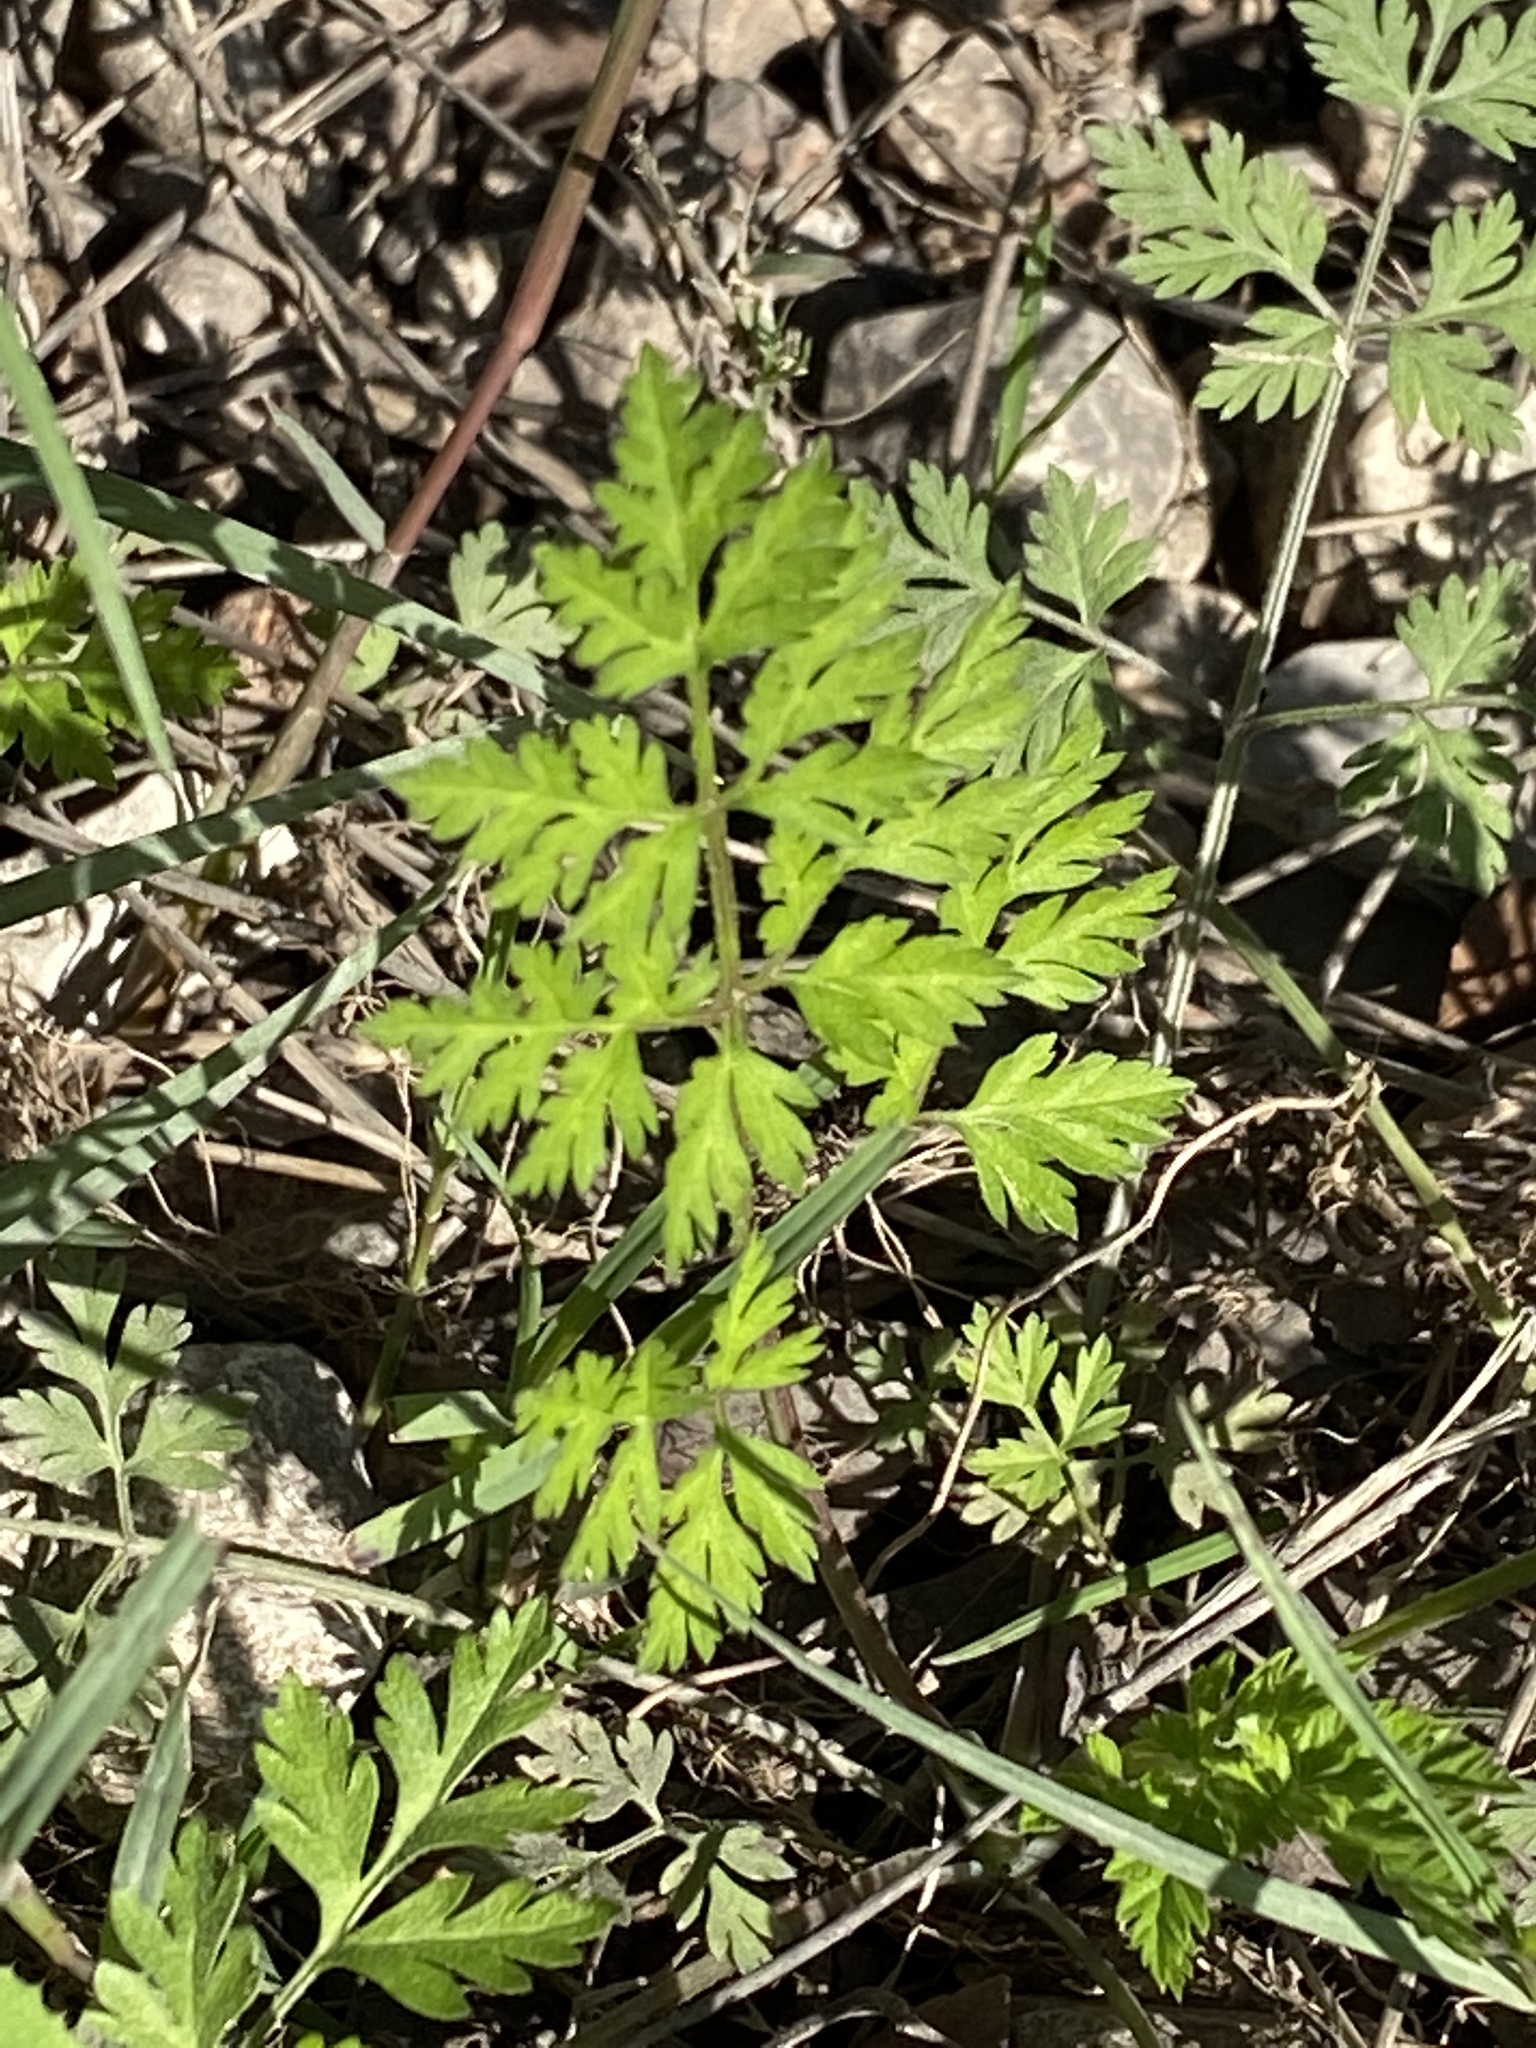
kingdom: Plantae
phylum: Tracheophyta
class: Magnoliopsida
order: Apiales
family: Apiaceae
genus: Torilis
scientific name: Torilis arvensis
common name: Spreading hedge-parsley
